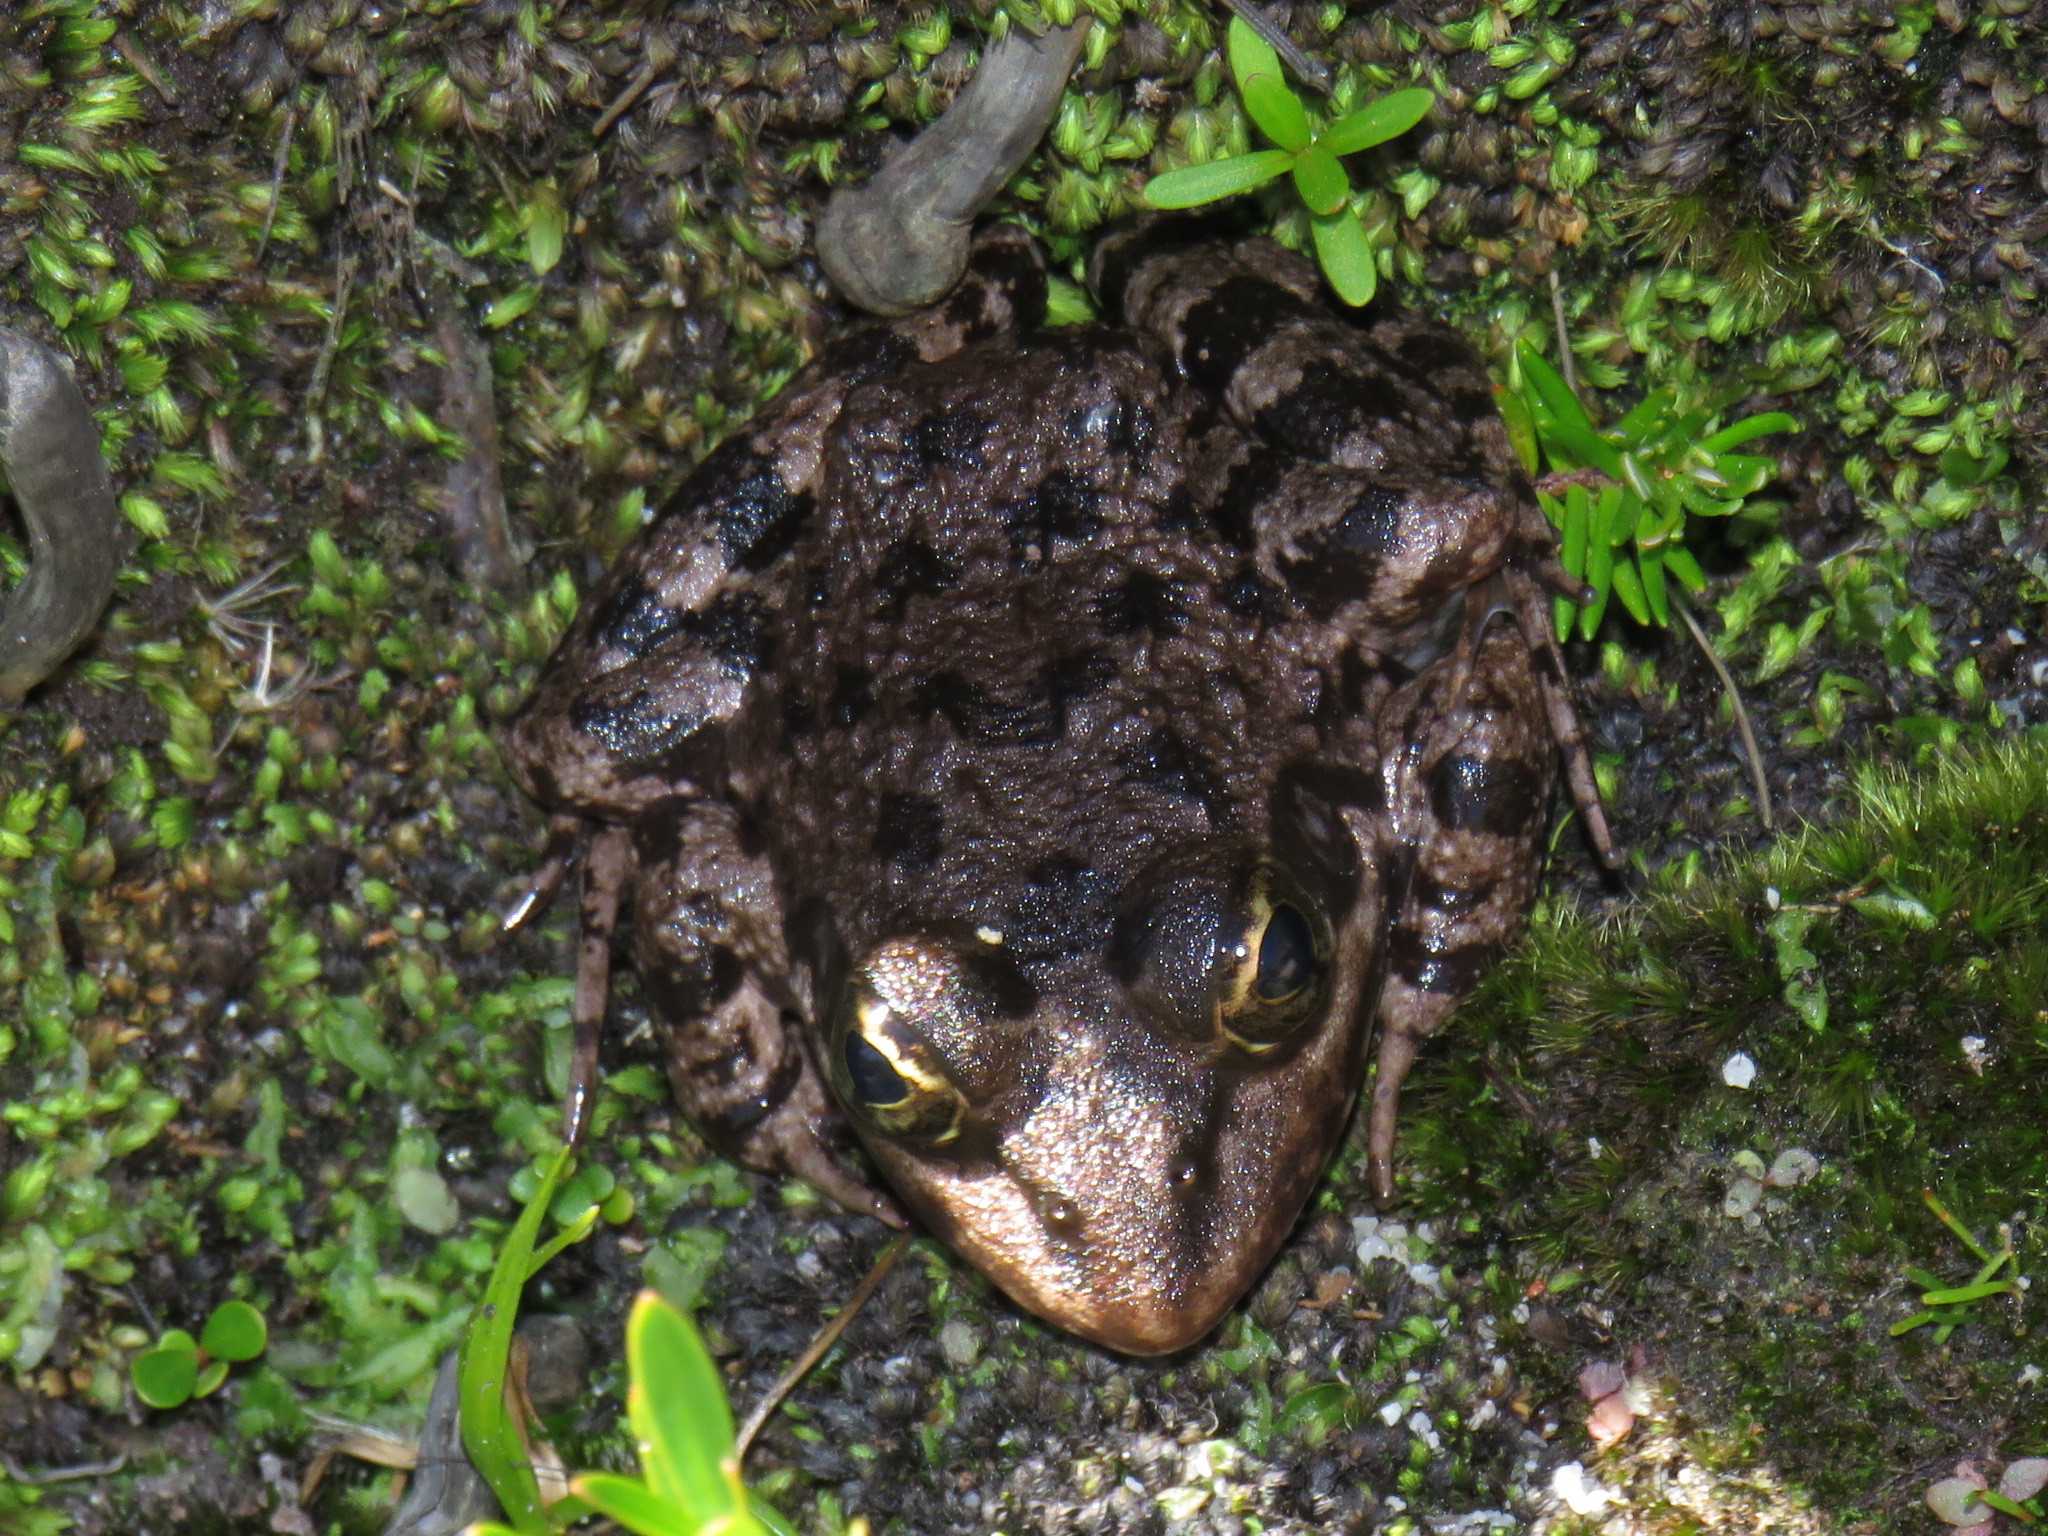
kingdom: Animalia
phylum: Chordata
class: Amphibia
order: Anura
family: Pyxicephalidae
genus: Amietia
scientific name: Amietia fuscigula
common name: Cape rana
